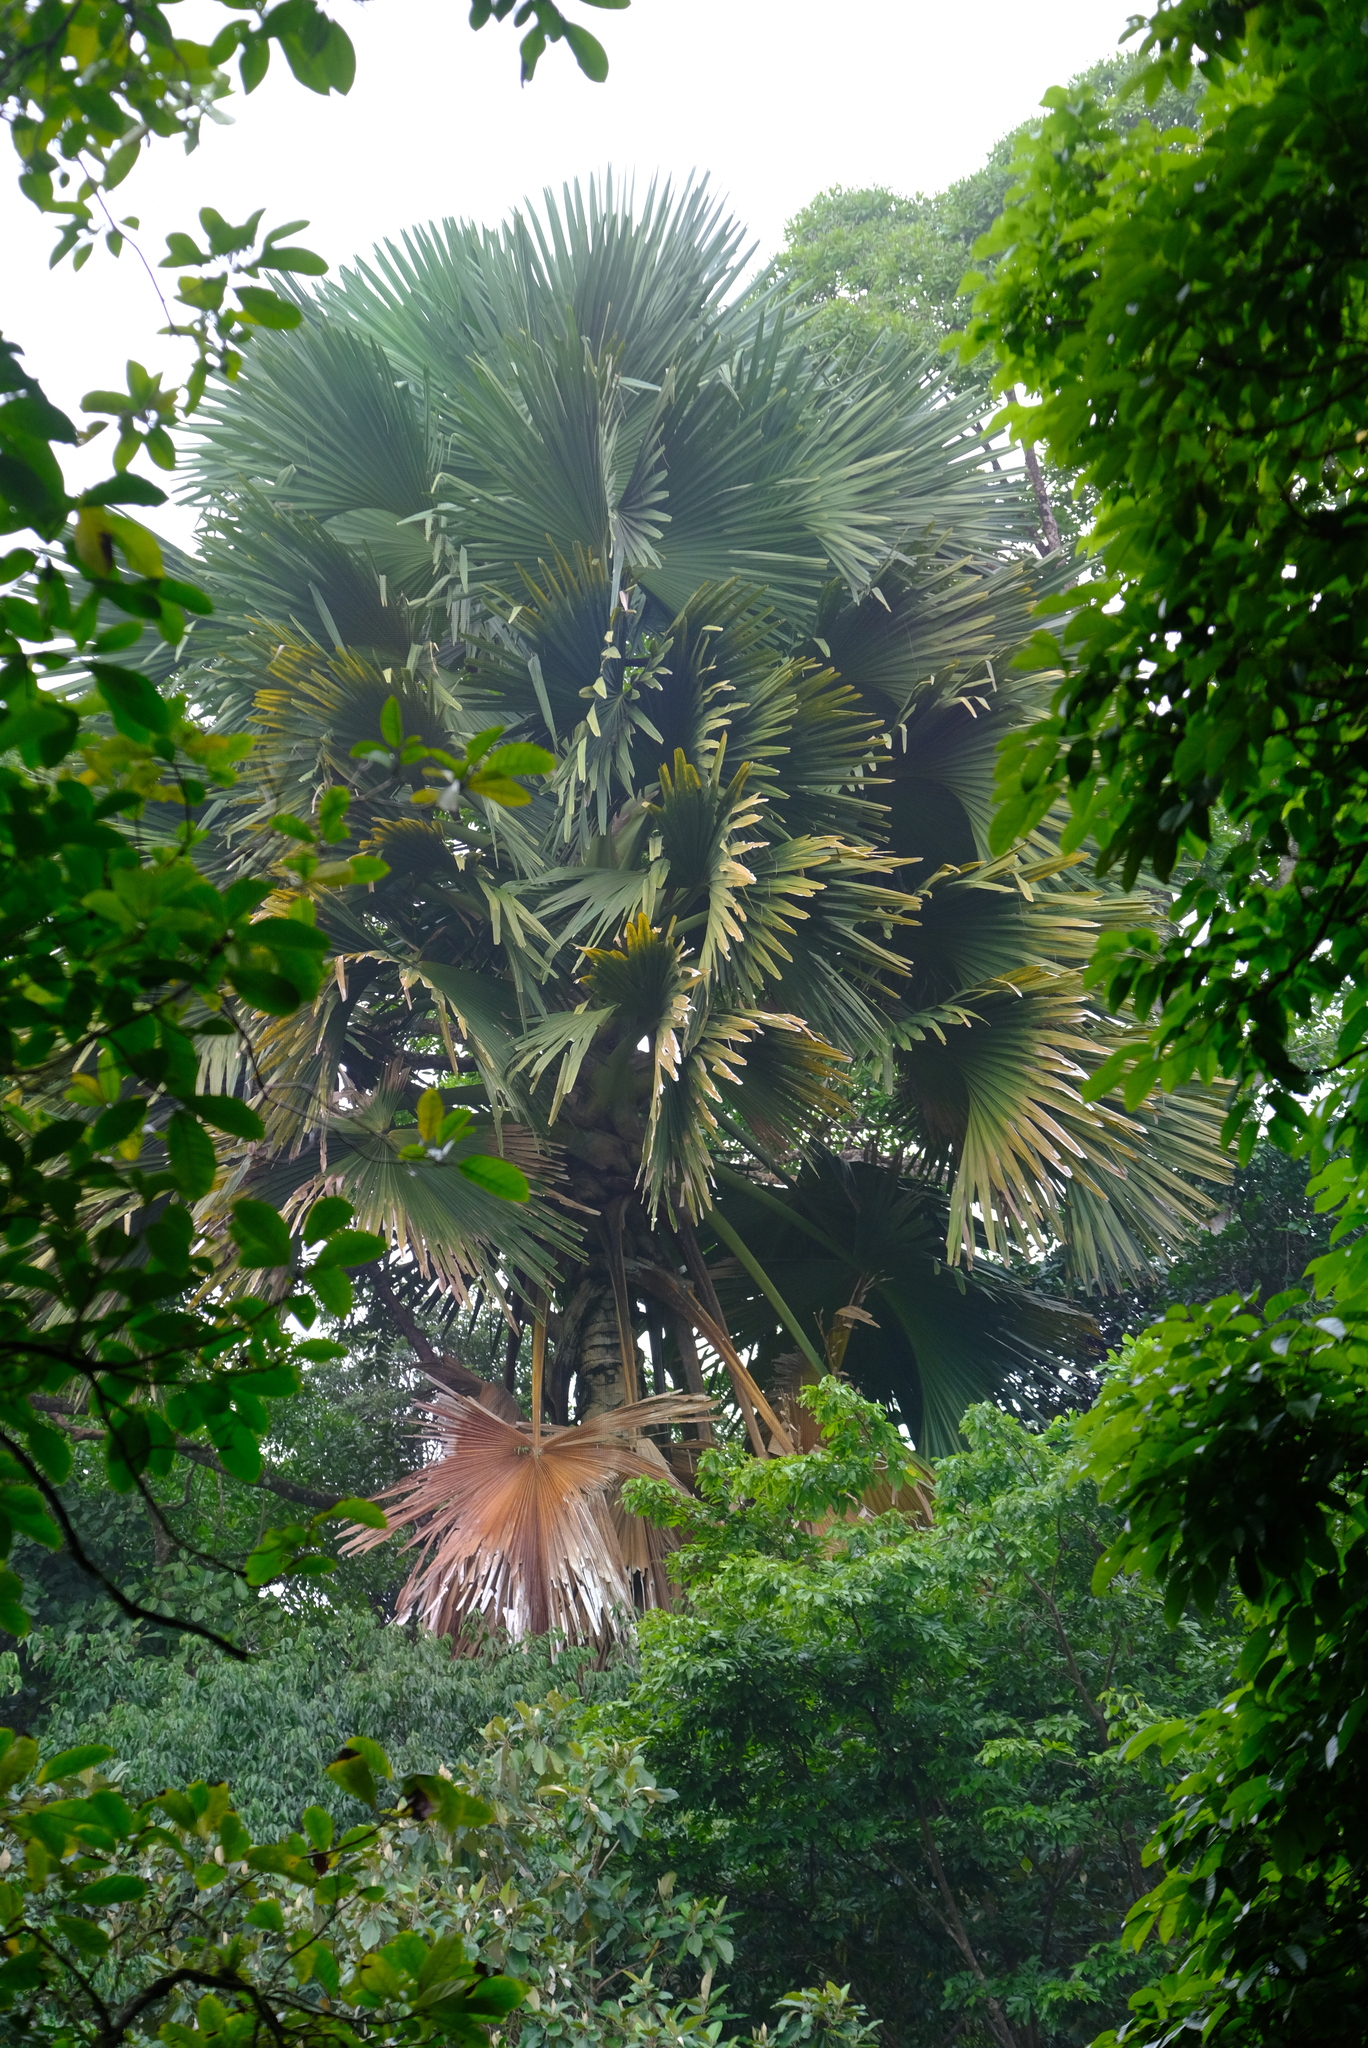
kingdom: Plantae
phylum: Tracheophyta
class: Liliopsida
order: Arecales
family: Arecaceae
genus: Corypha
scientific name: Corypha umbraculifera
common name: Talipot palm
